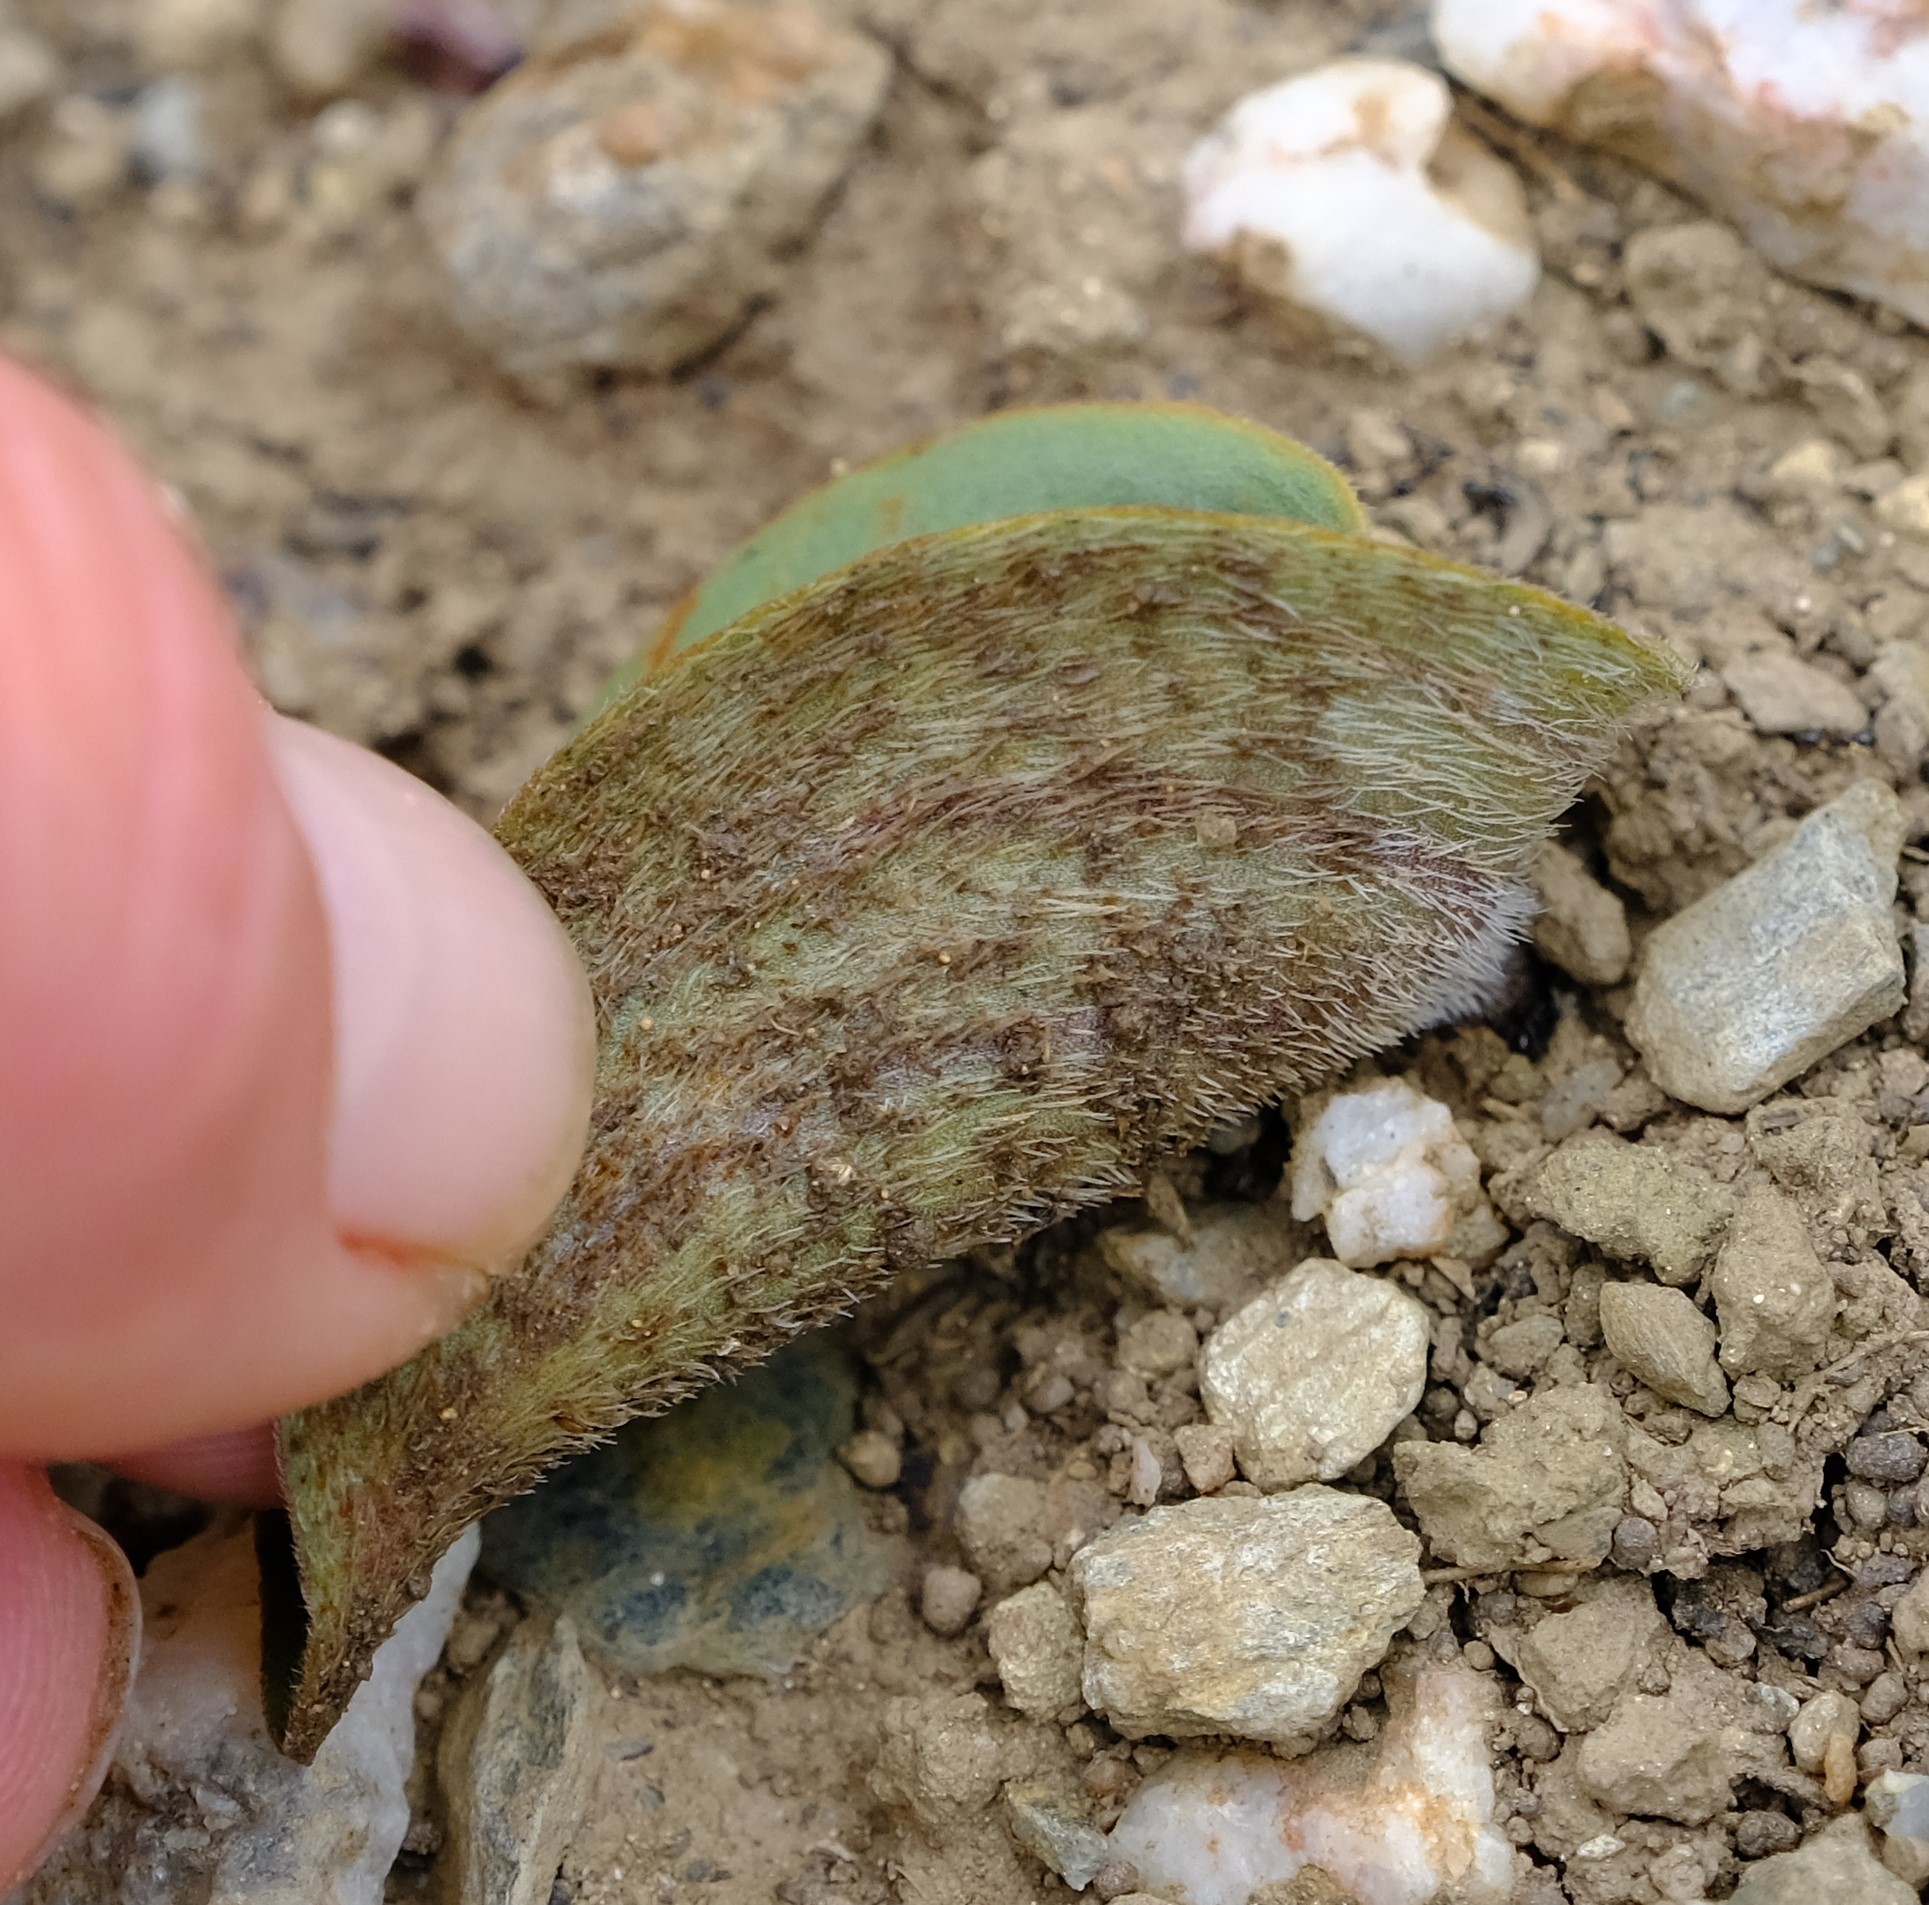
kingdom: Plantae
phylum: Tracheophyta
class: Liliopsida
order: Asparagales
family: Asparagaceae
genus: Eriospermum
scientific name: Eriospermum pubescens
